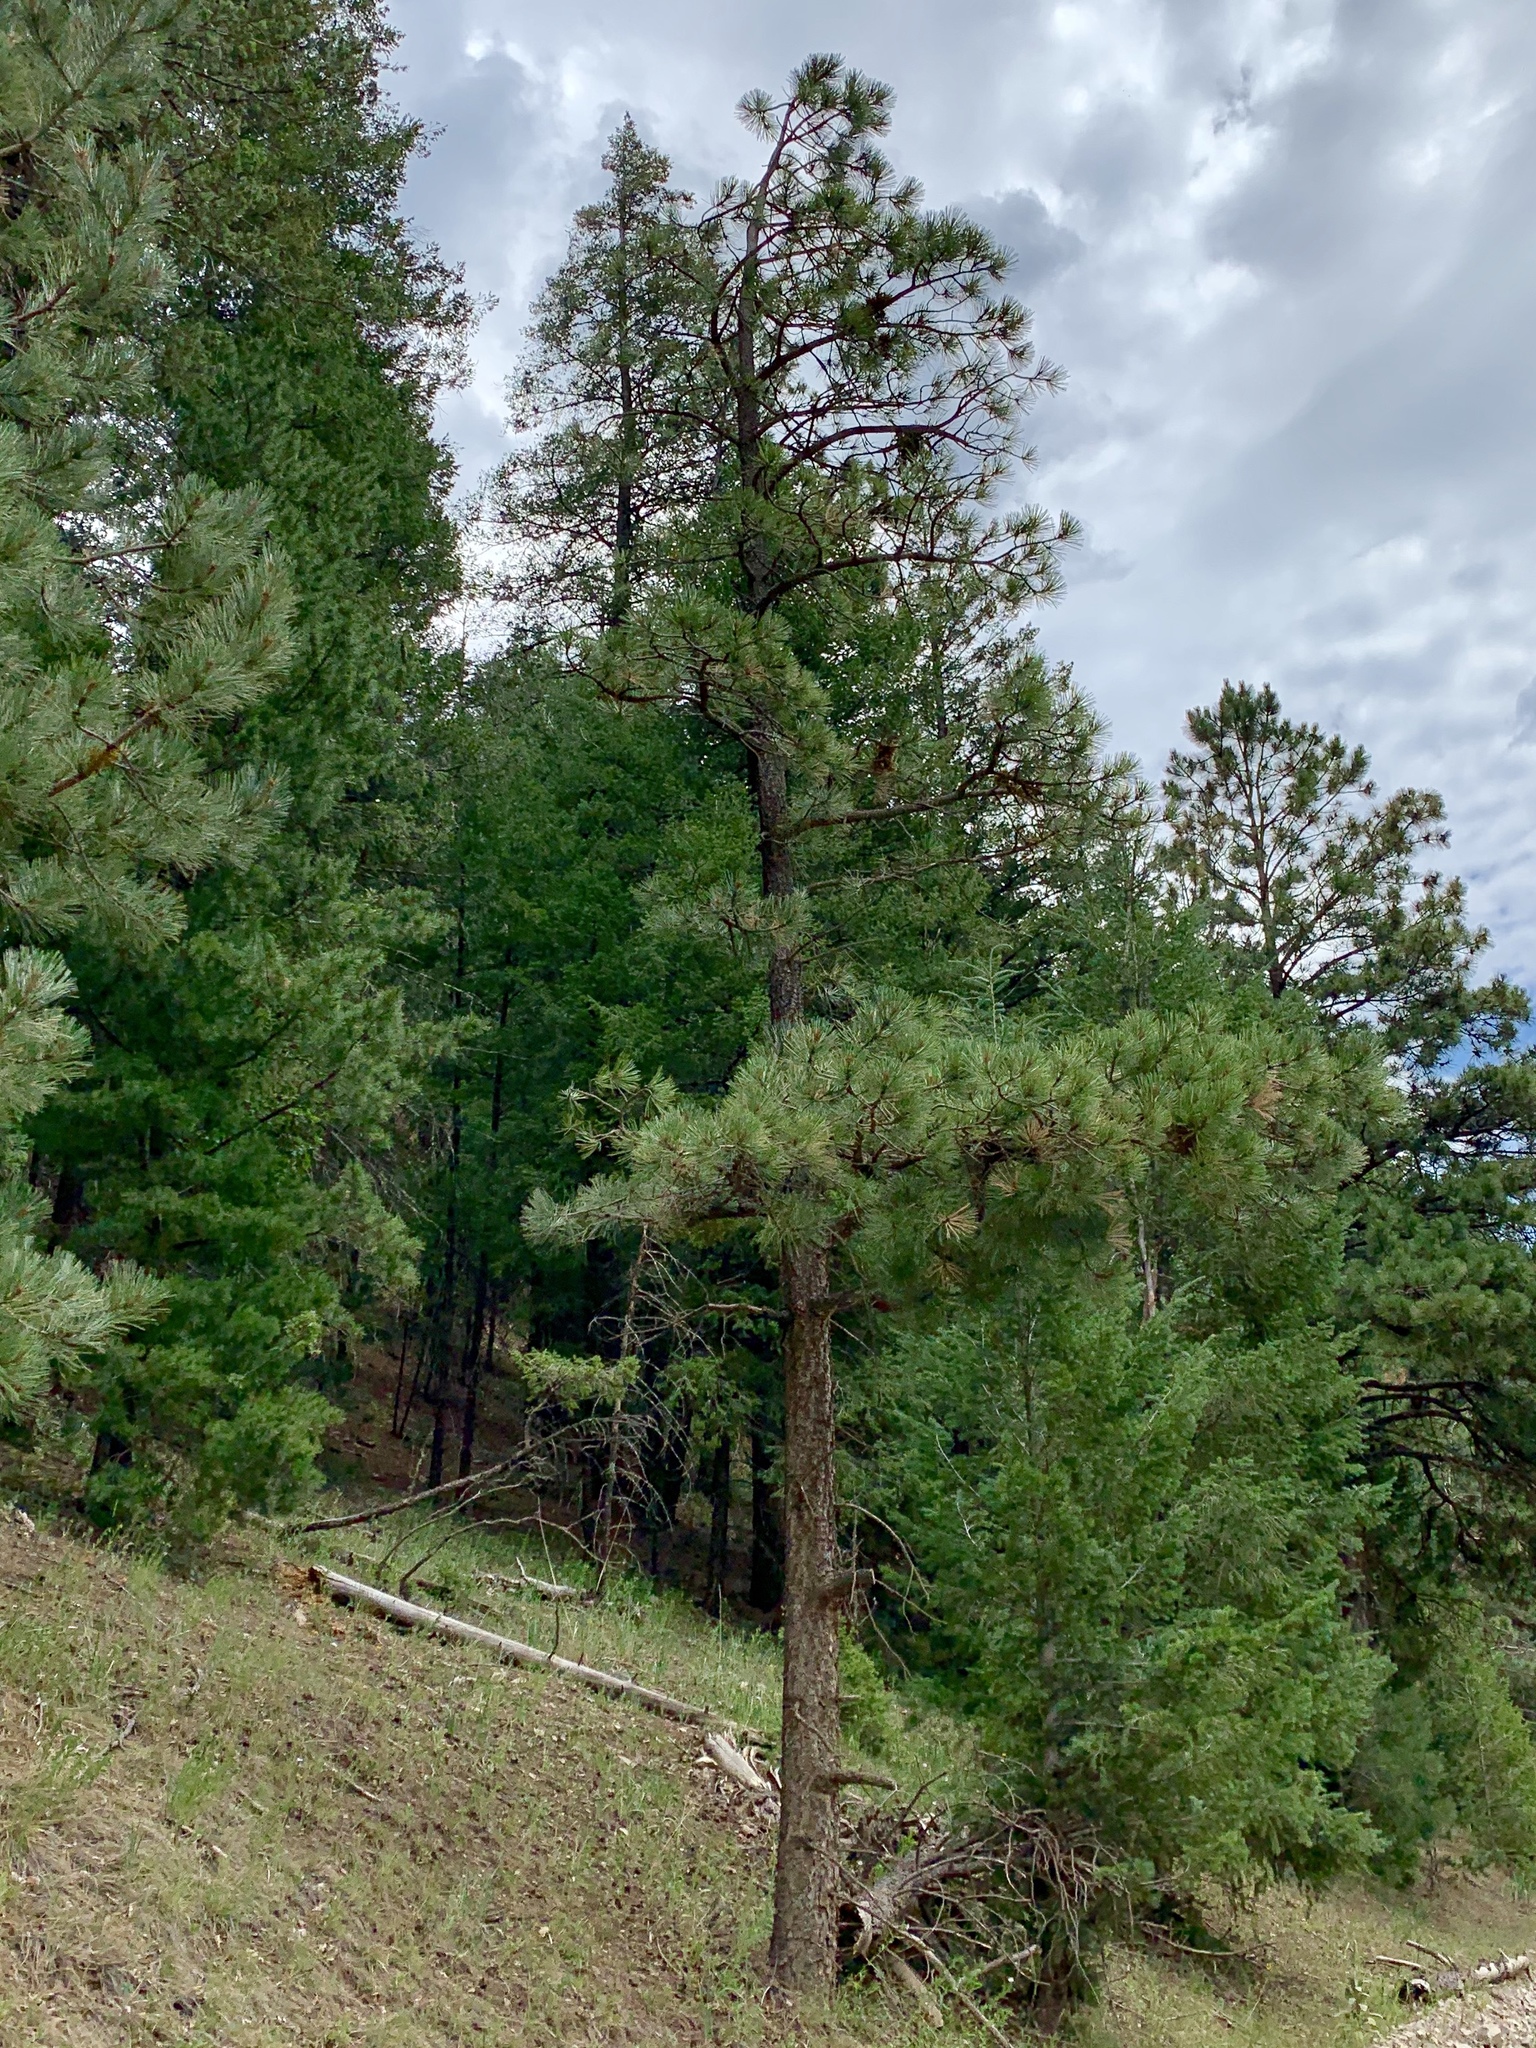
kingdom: Plantae
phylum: Tracheophyta
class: Pinopsida
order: Pinales
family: Pinaceae
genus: Pinus
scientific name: Pinus ponderosa
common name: Western yellow-pine
